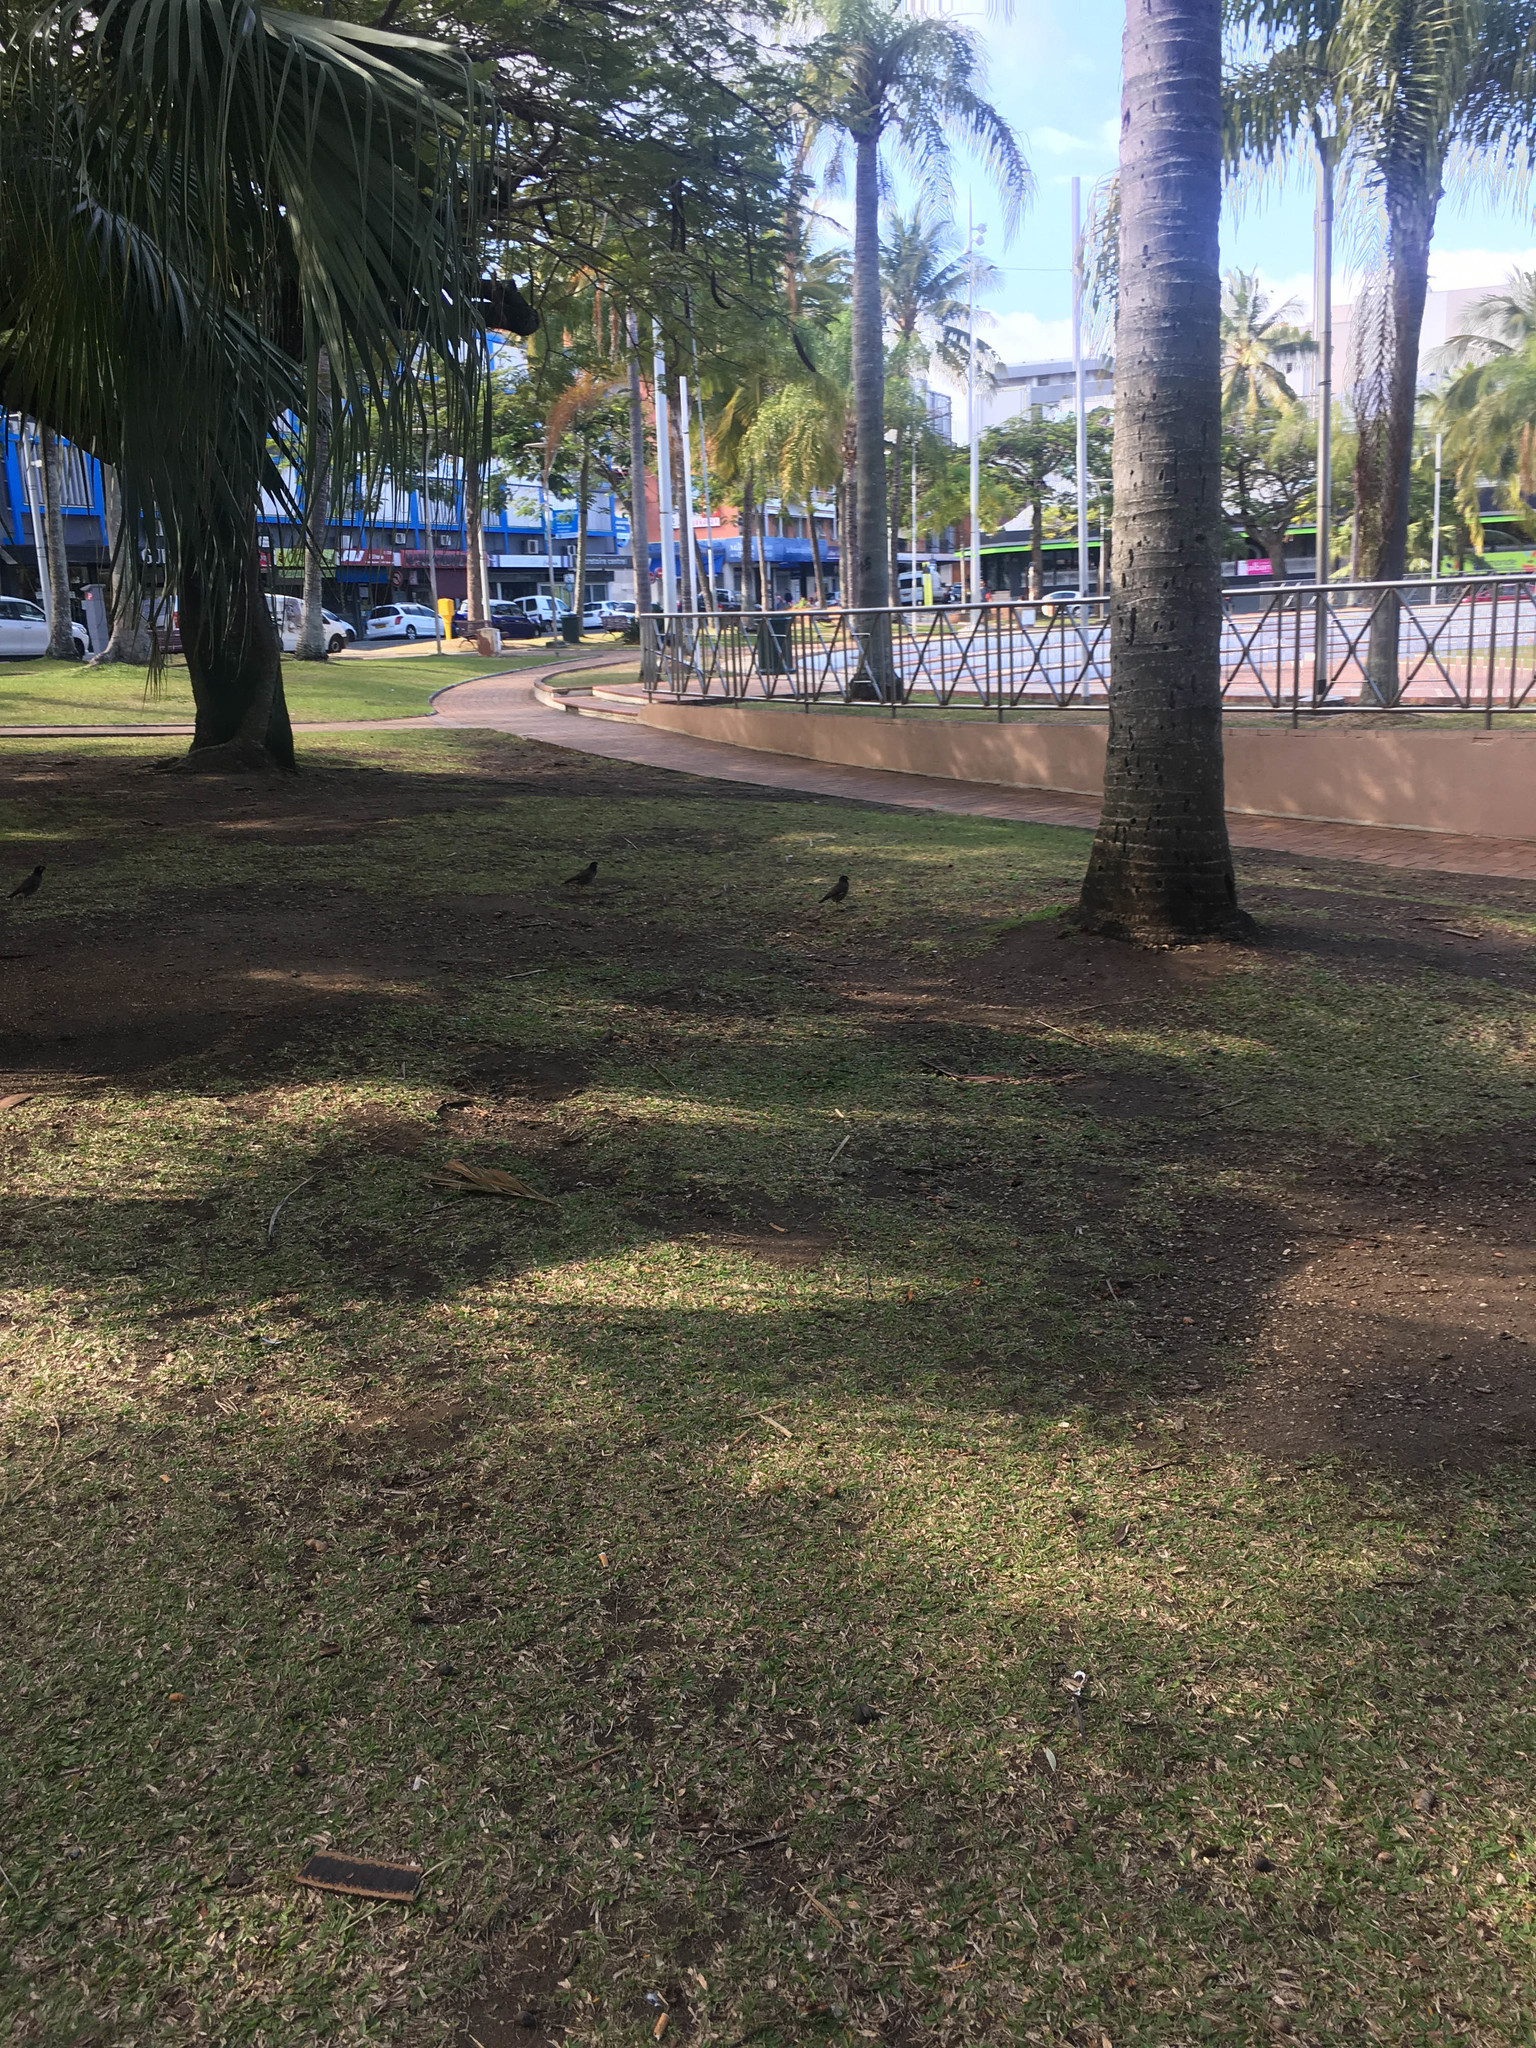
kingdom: Animalia
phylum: Chordata
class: Aves
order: Passeriformes
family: Sturnidae
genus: Acridotheres
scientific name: Acridotheres tristis
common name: Common myna
